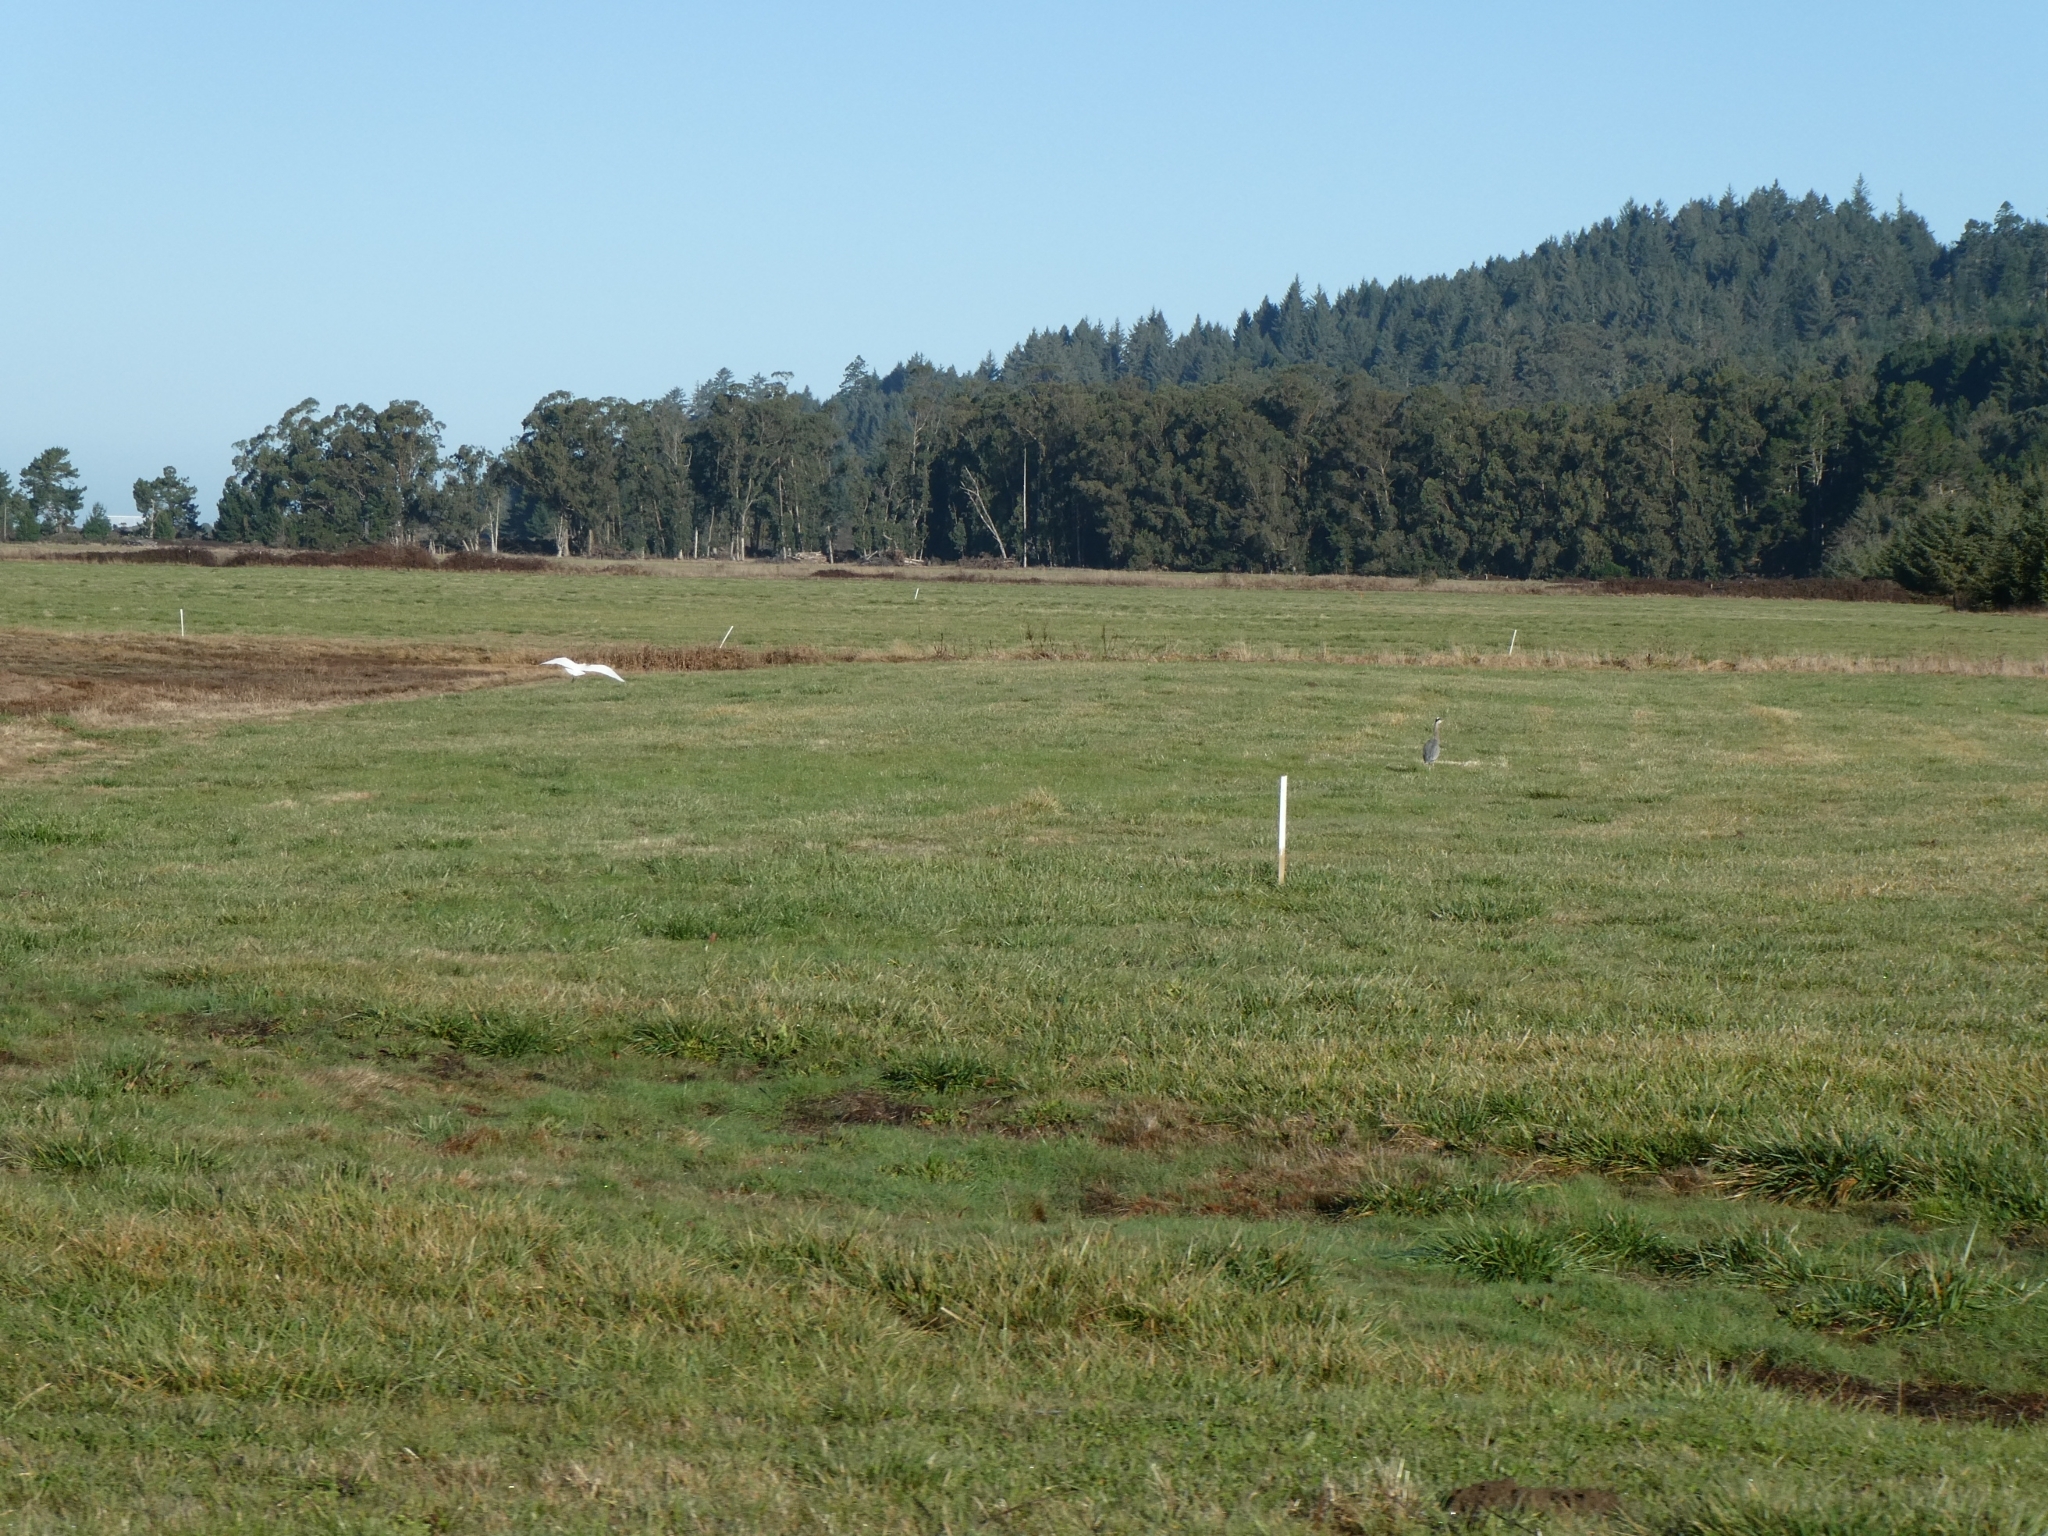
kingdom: Animalia
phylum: Chordata
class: Aves
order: Pelecaniformes
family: Ardeidae
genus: Ardea
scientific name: Ardea alba
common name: Great egret
